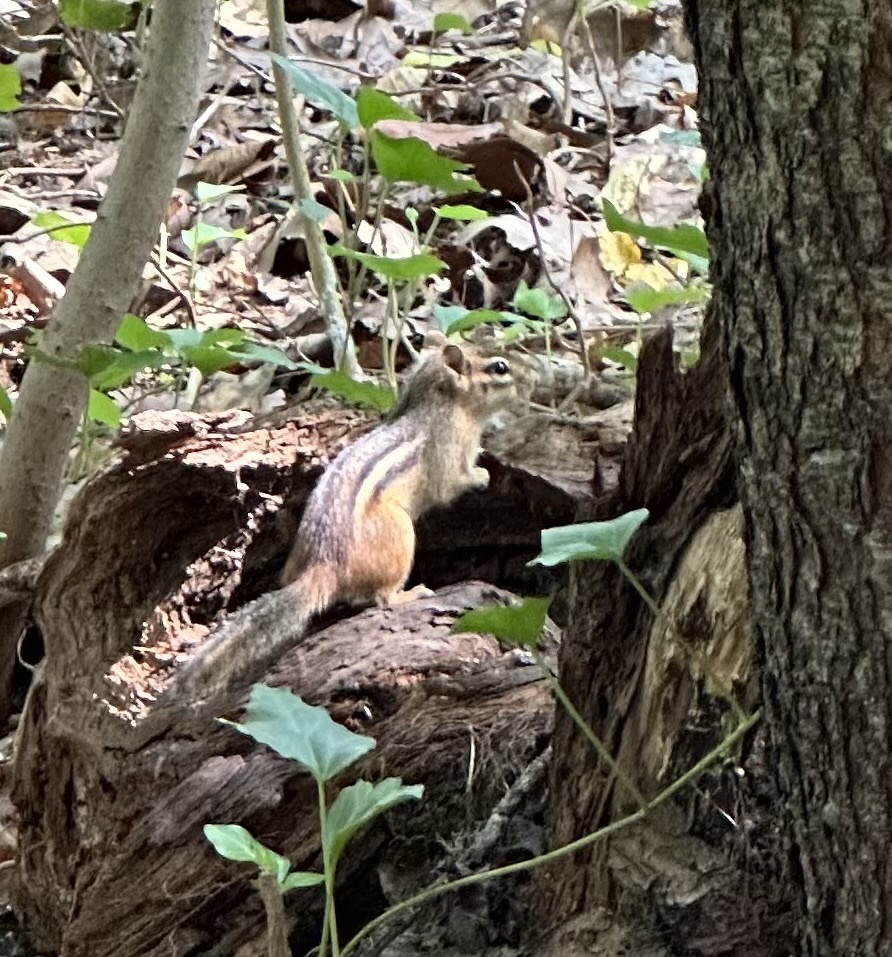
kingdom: Animalia
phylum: Chordata
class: Mammalia
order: Rodentia
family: Sciuridae
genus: Tamias
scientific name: Tamias striatus
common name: Eastern chipmunk
